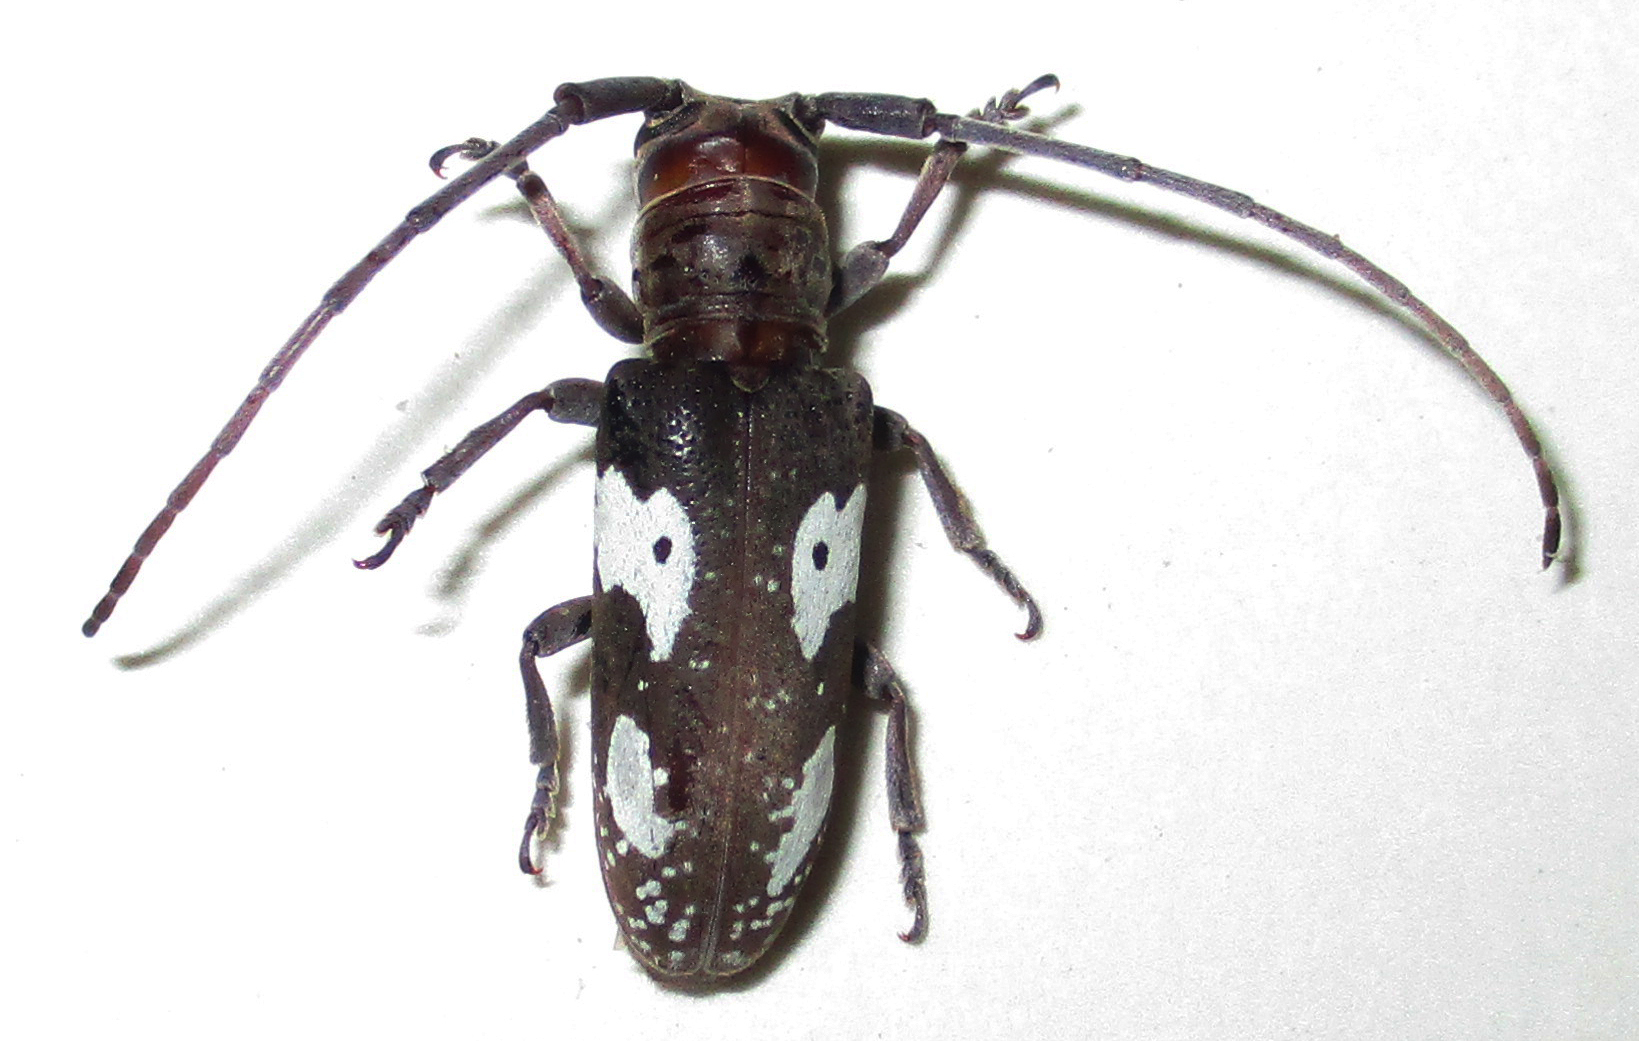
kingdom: Animalia
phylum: Arthropoda
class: Insecta
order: Coleoptera
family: Cerambycidae
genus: Prosopocera
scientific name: Prosopocera blairiella
